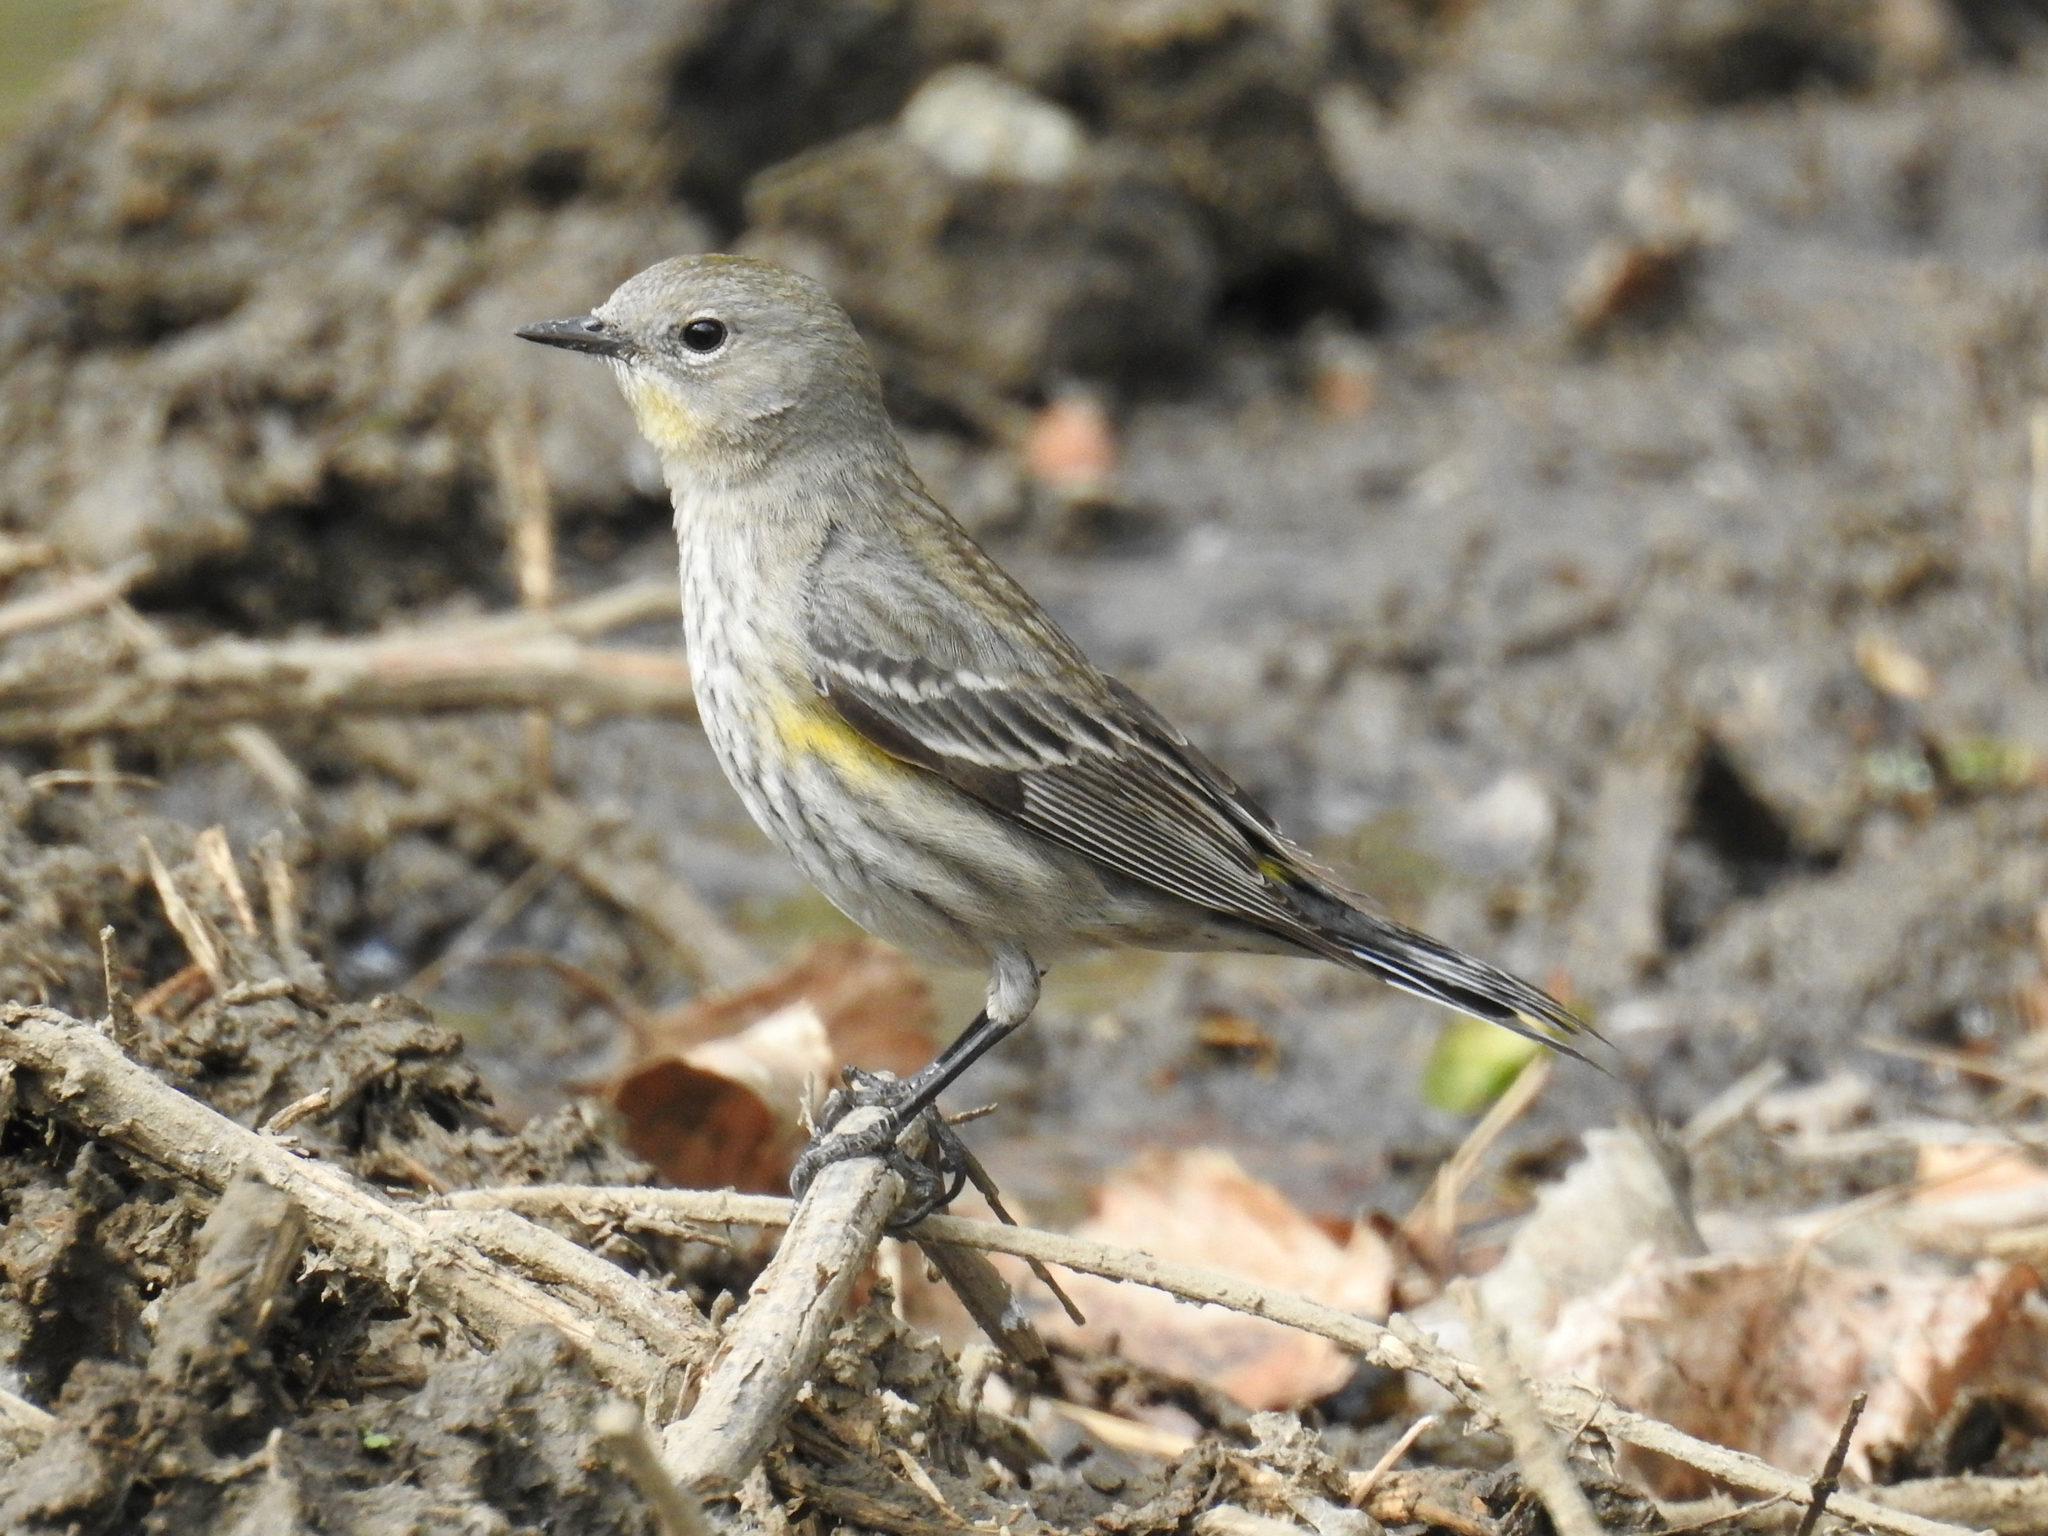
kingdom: Animalia
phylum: Chordata
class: Aves
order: Passeriformes
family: Parulidae
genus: Setophaga
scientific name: Setophaga coronata
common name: Myrtle warbler
